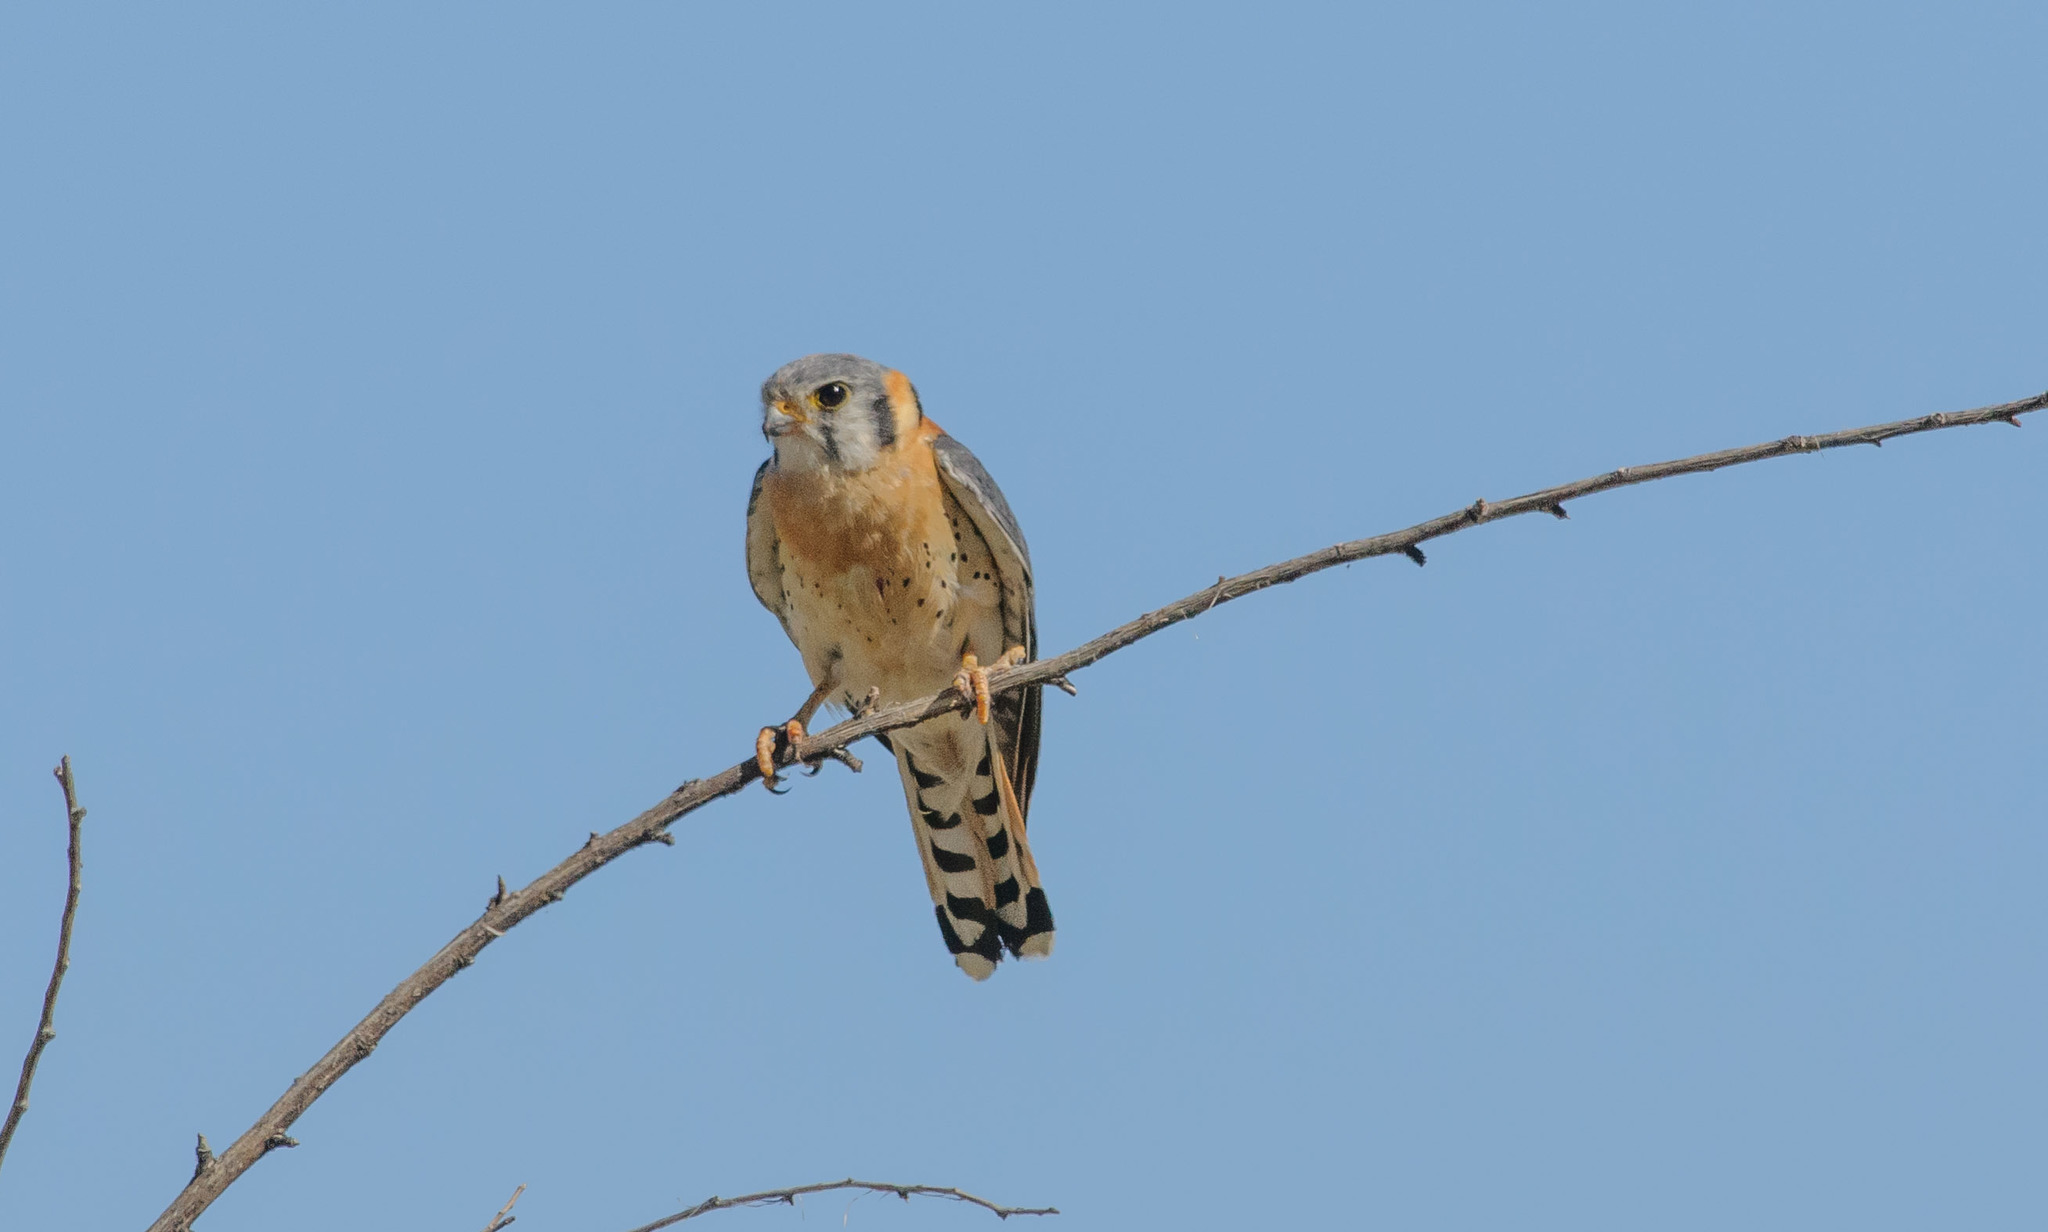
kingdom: Animalia
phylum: Chordata
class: Aves
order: Falconiformes
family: Falconidae
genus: Falco
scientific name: Falco sparverius
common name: American kestrel
